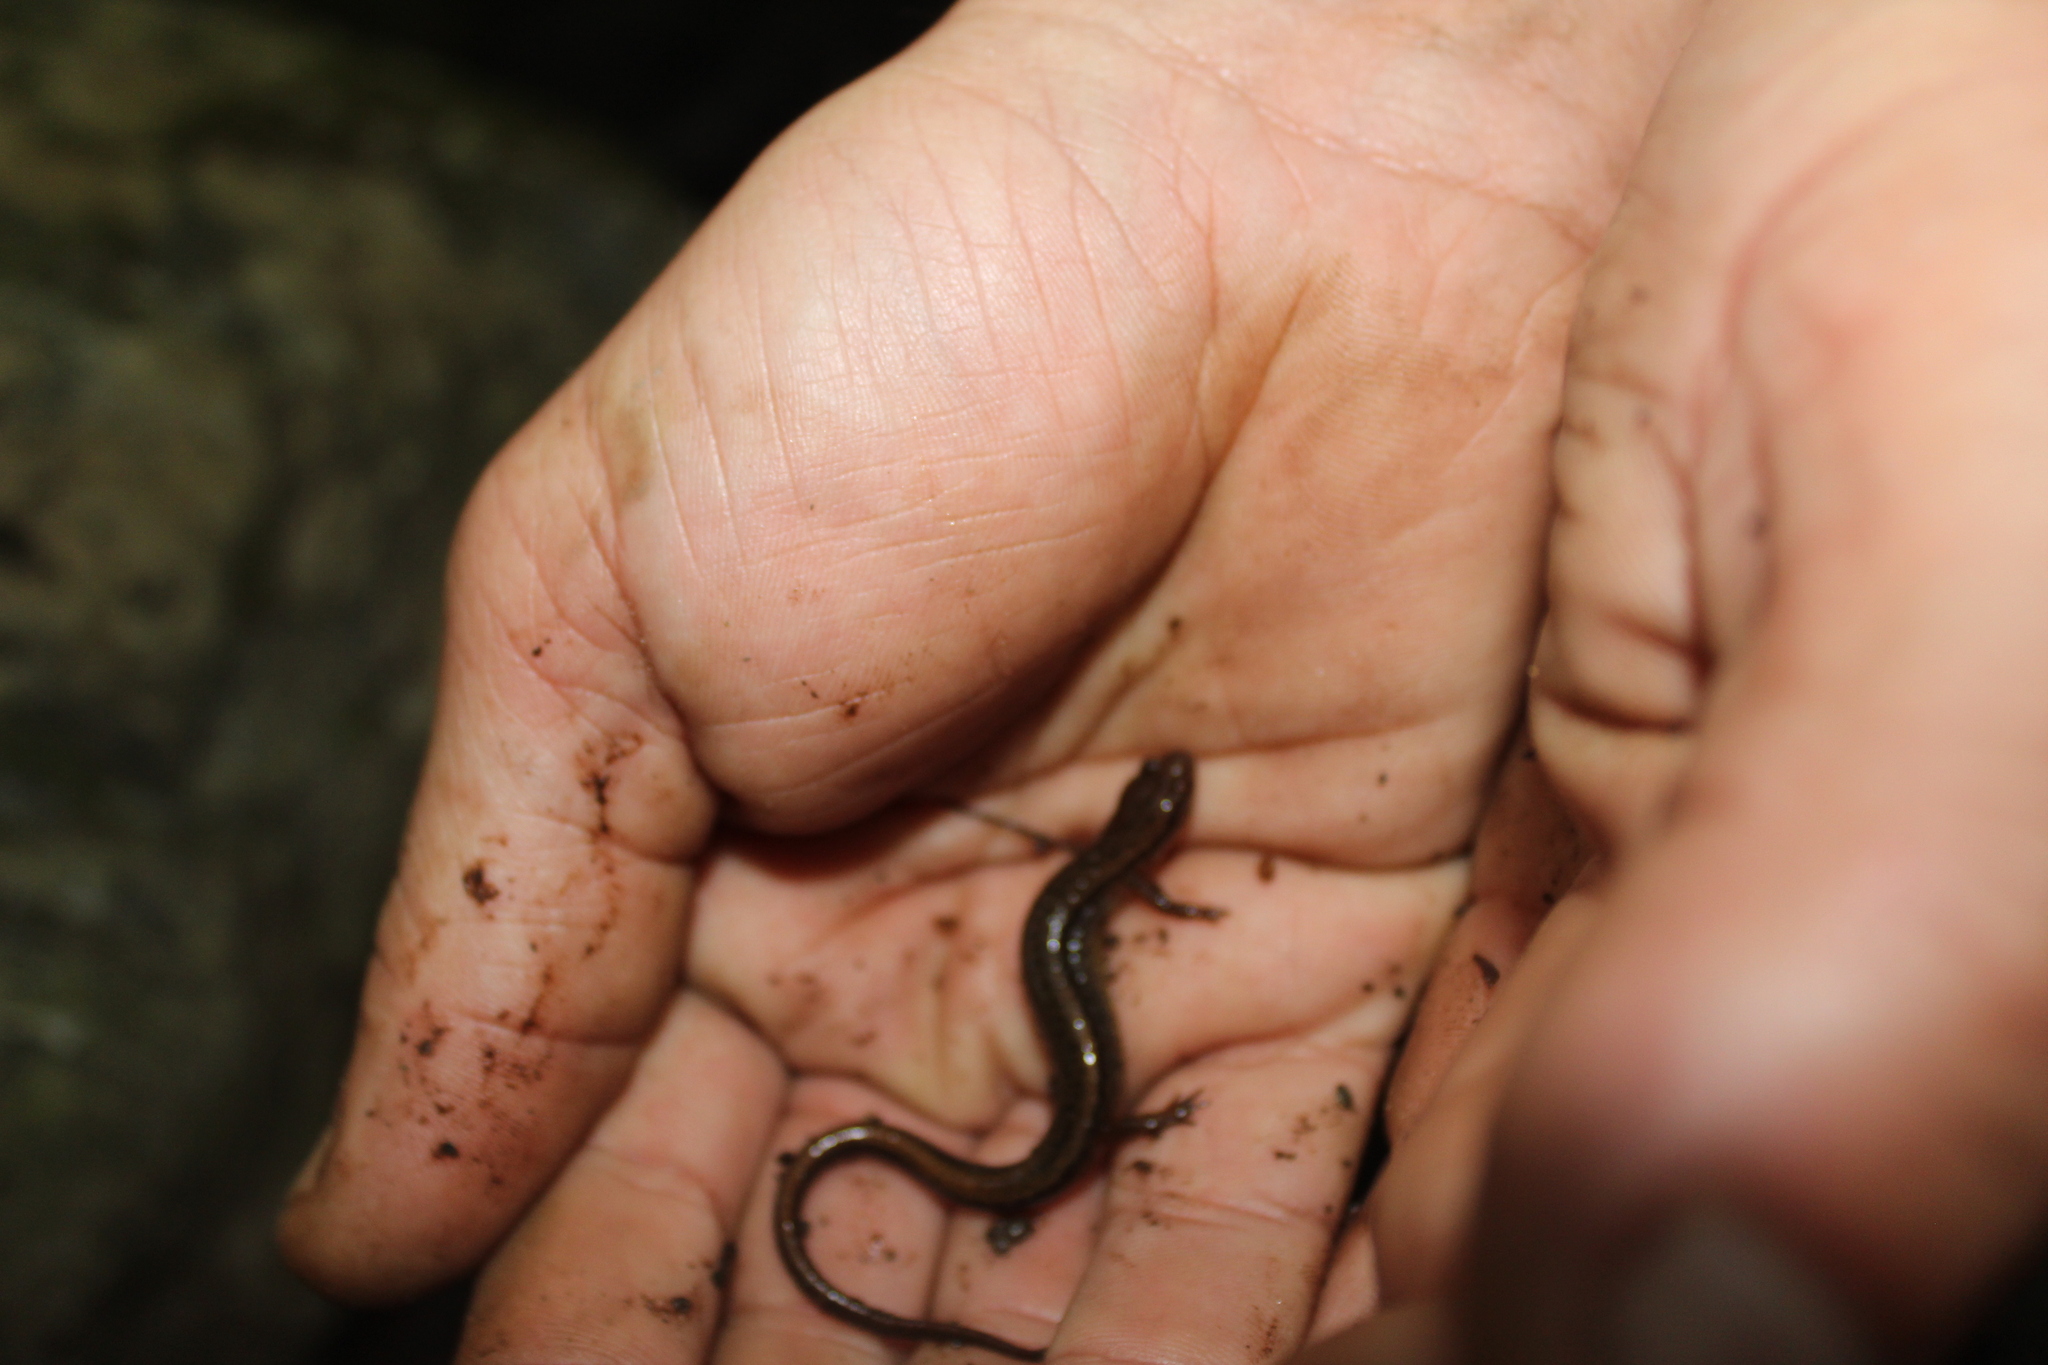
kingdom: Animalia
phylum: Chordata
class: Amphibia
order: Caudata
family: Plethodontidae
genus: Eurycea
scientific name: Eurycea bislineata
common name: Northern two-lined salamander
